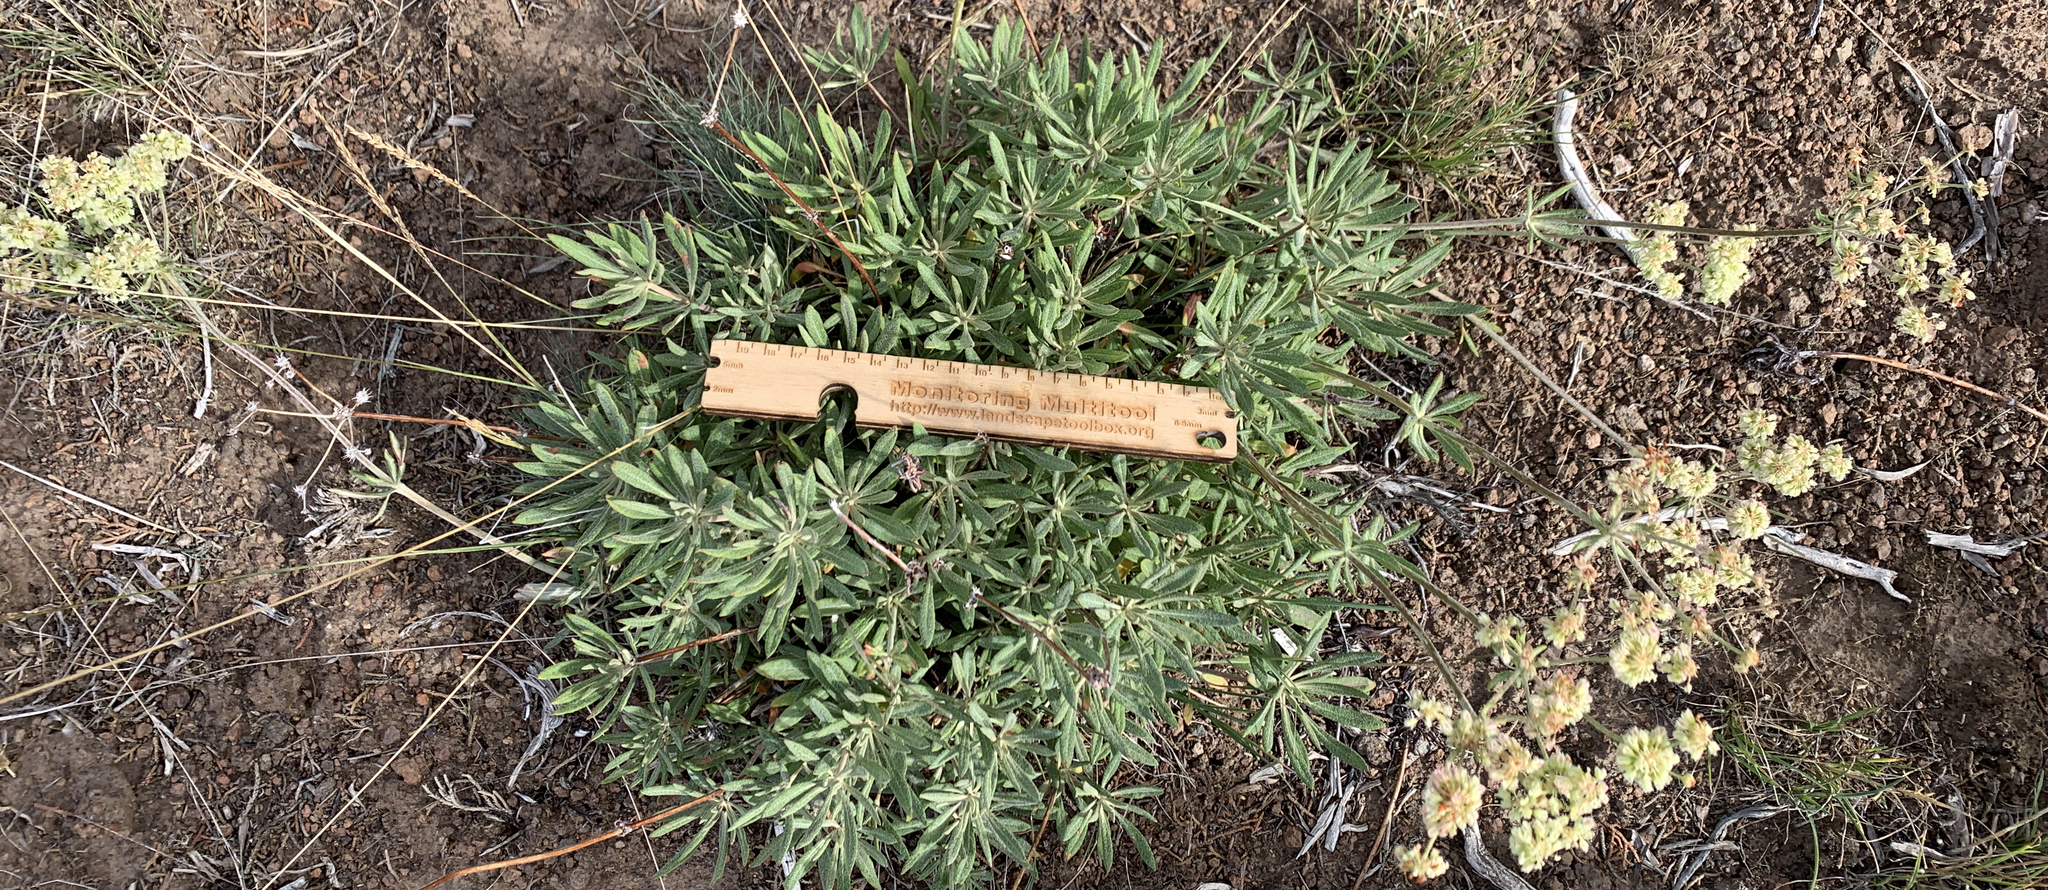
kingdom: Plantae
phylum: Tracheophyta
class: Magnoliopsida
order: Caryophyllales
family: Polygonaceae
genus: Eriogonum
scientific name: Eriogonum heracleoides
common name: Wyeth's buckwheat
